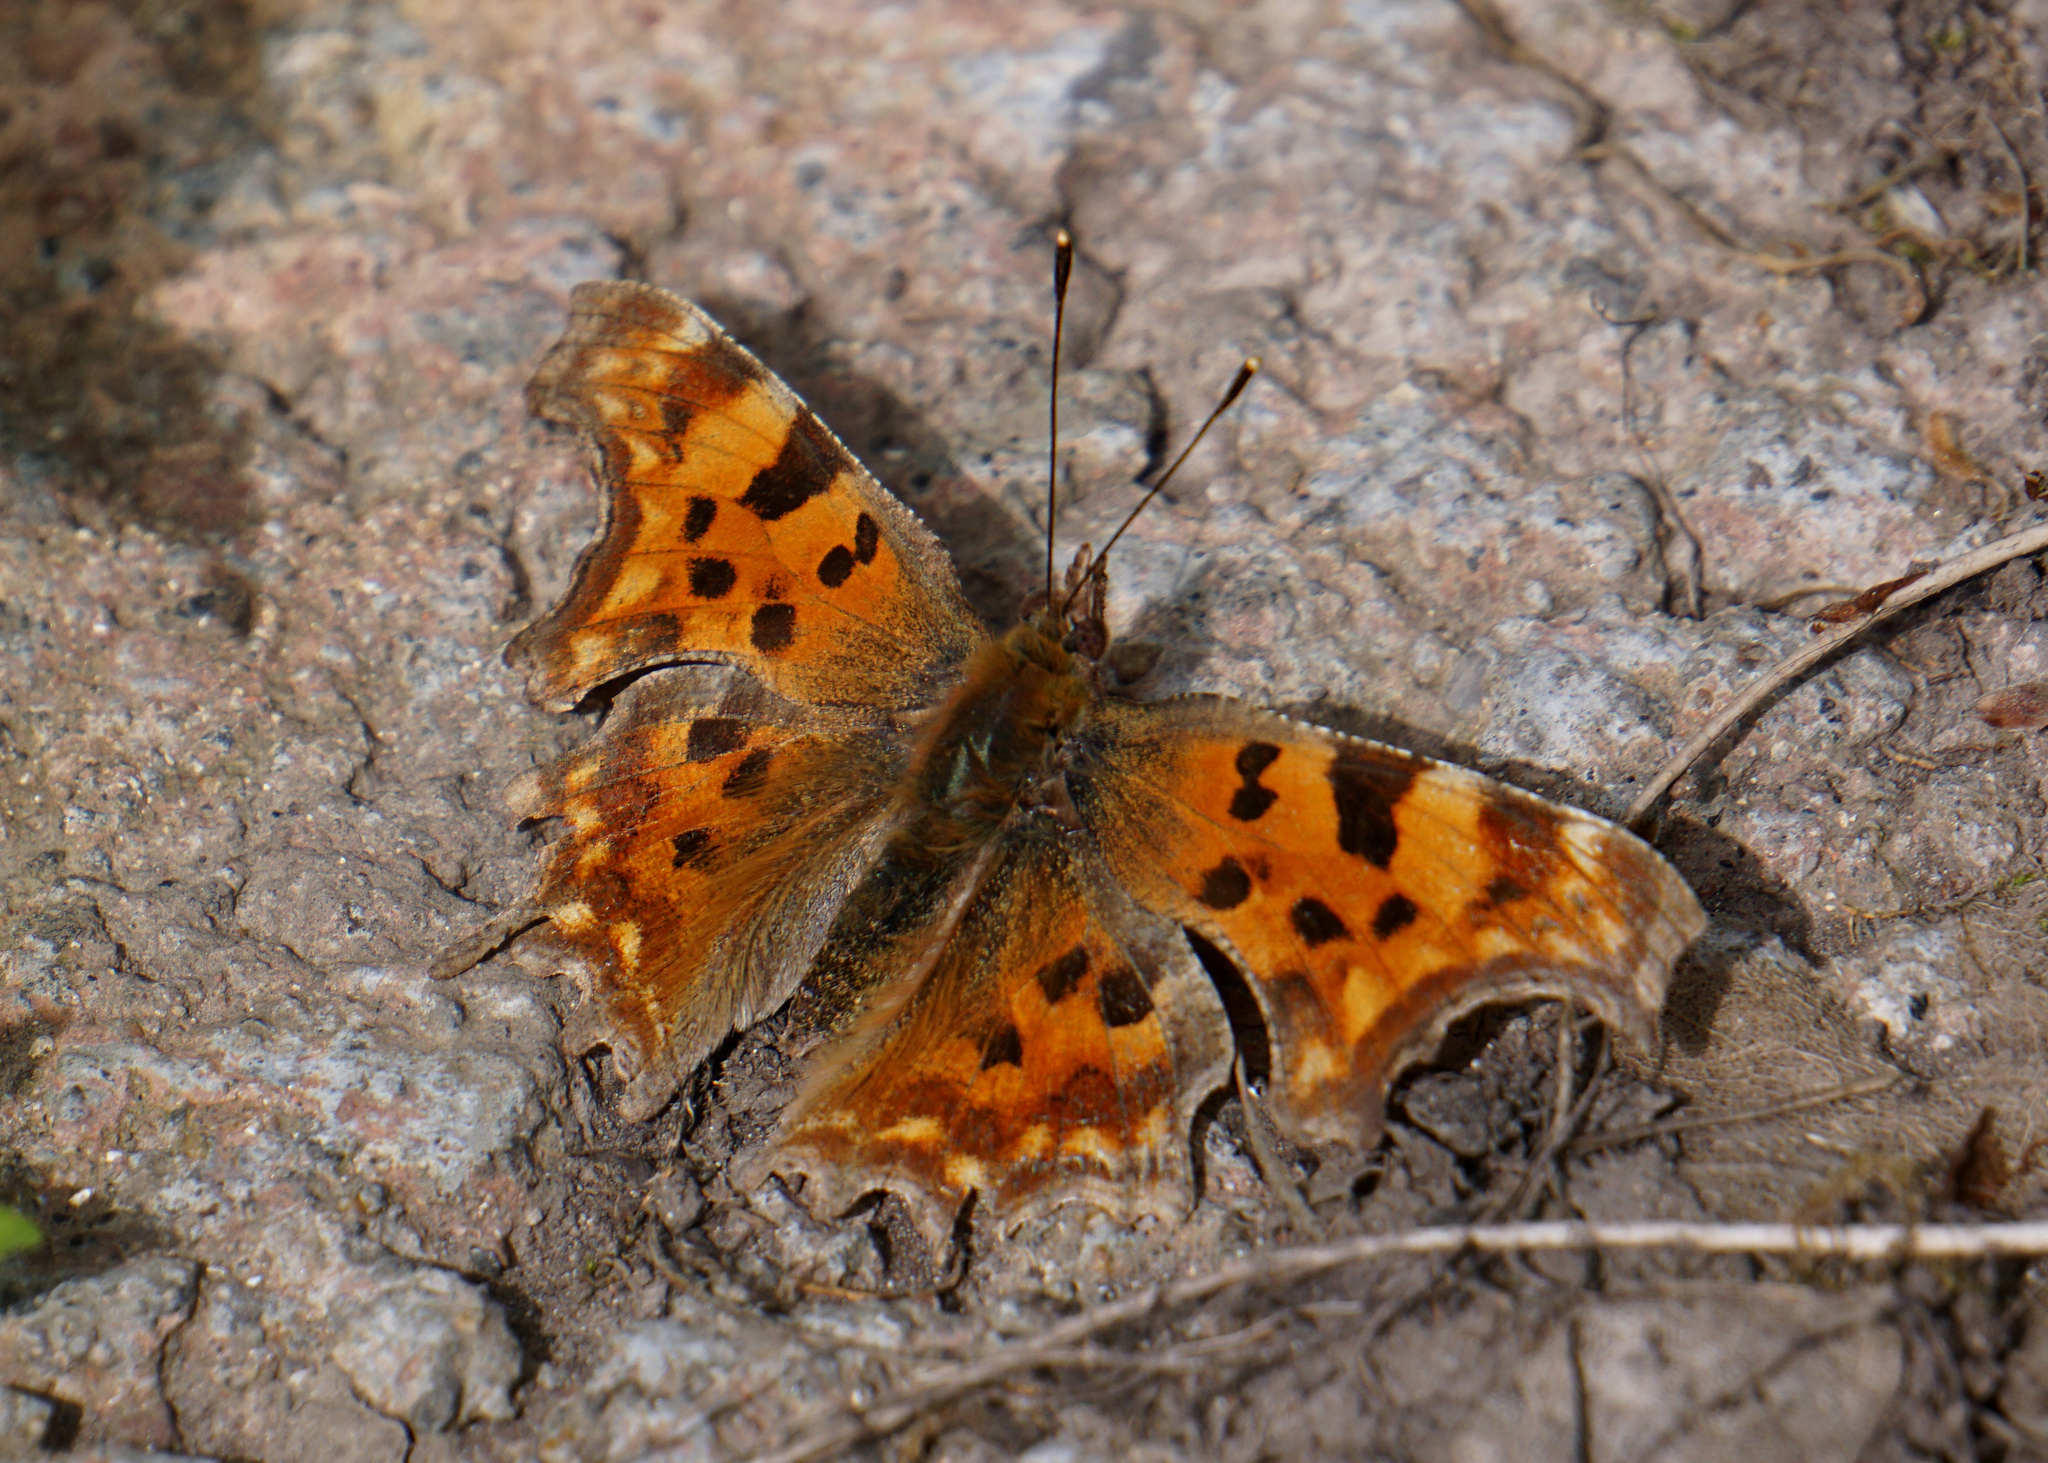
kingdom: Animalia
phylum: Arthropoda
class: Insecta
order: Lepidoptera
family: Nymphalidae
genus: Polygonia
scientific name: Polygonia c-album
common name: Comma
